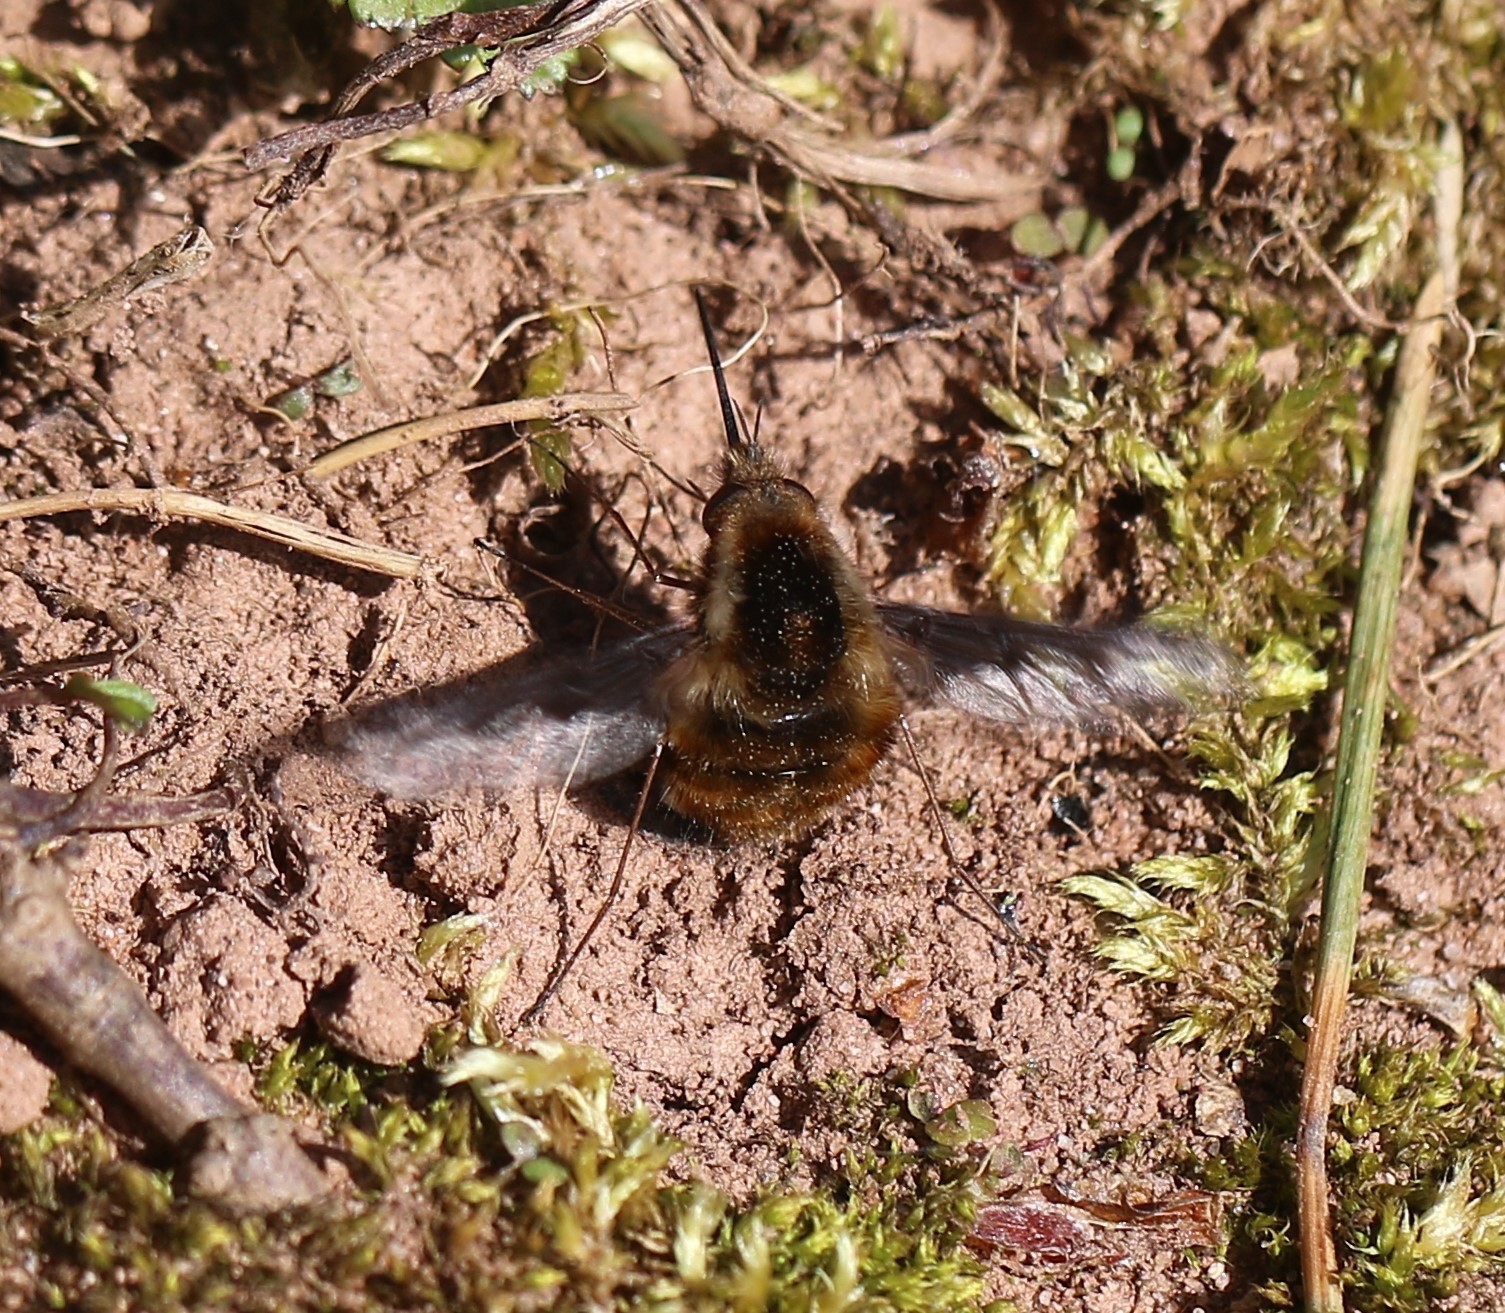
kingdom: Animalia
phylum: Arthropoda
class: Insecta
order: Diptera
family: Bombyliidae
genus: Bombylius
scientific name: Bombylius major
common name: Bee fly
